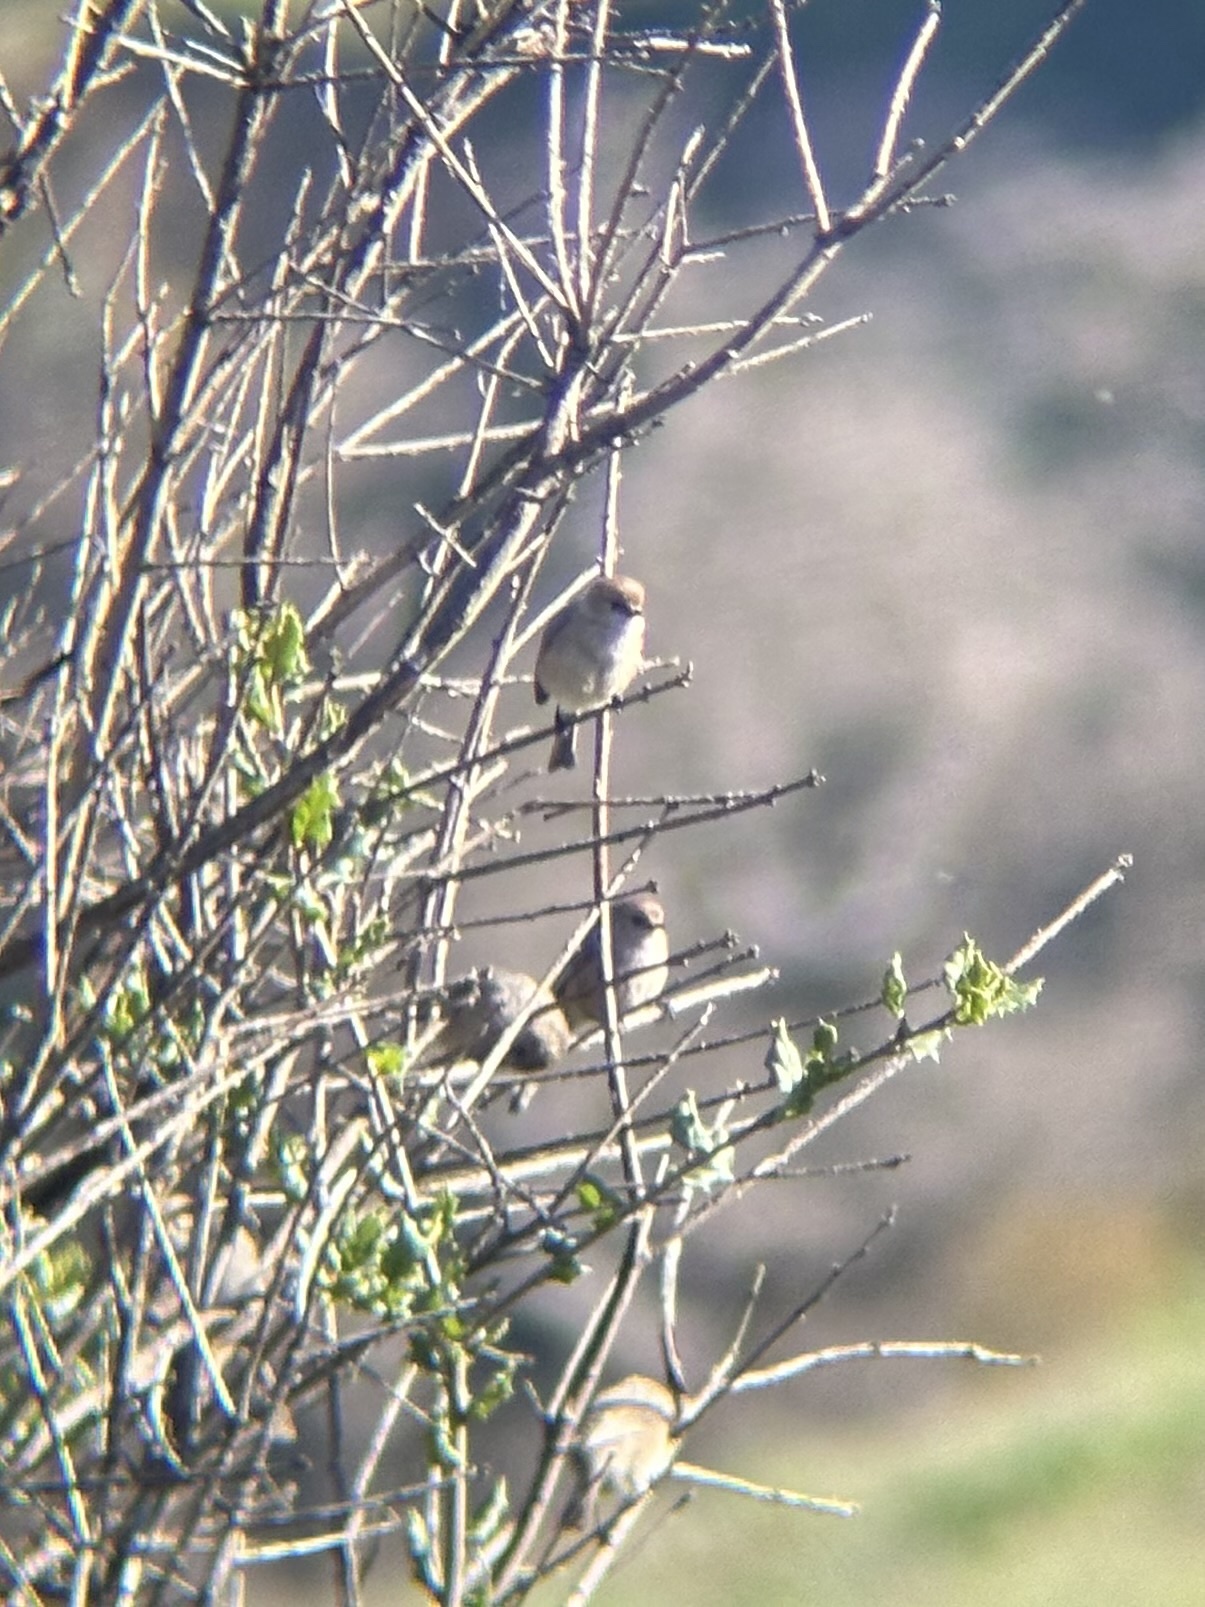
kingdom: Animalia
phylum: Chordata
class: Aves
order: Passeriformes
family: Aegithalidae
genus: Psaltriparus
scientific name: Psaltriparus minimus
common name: American bushtit
